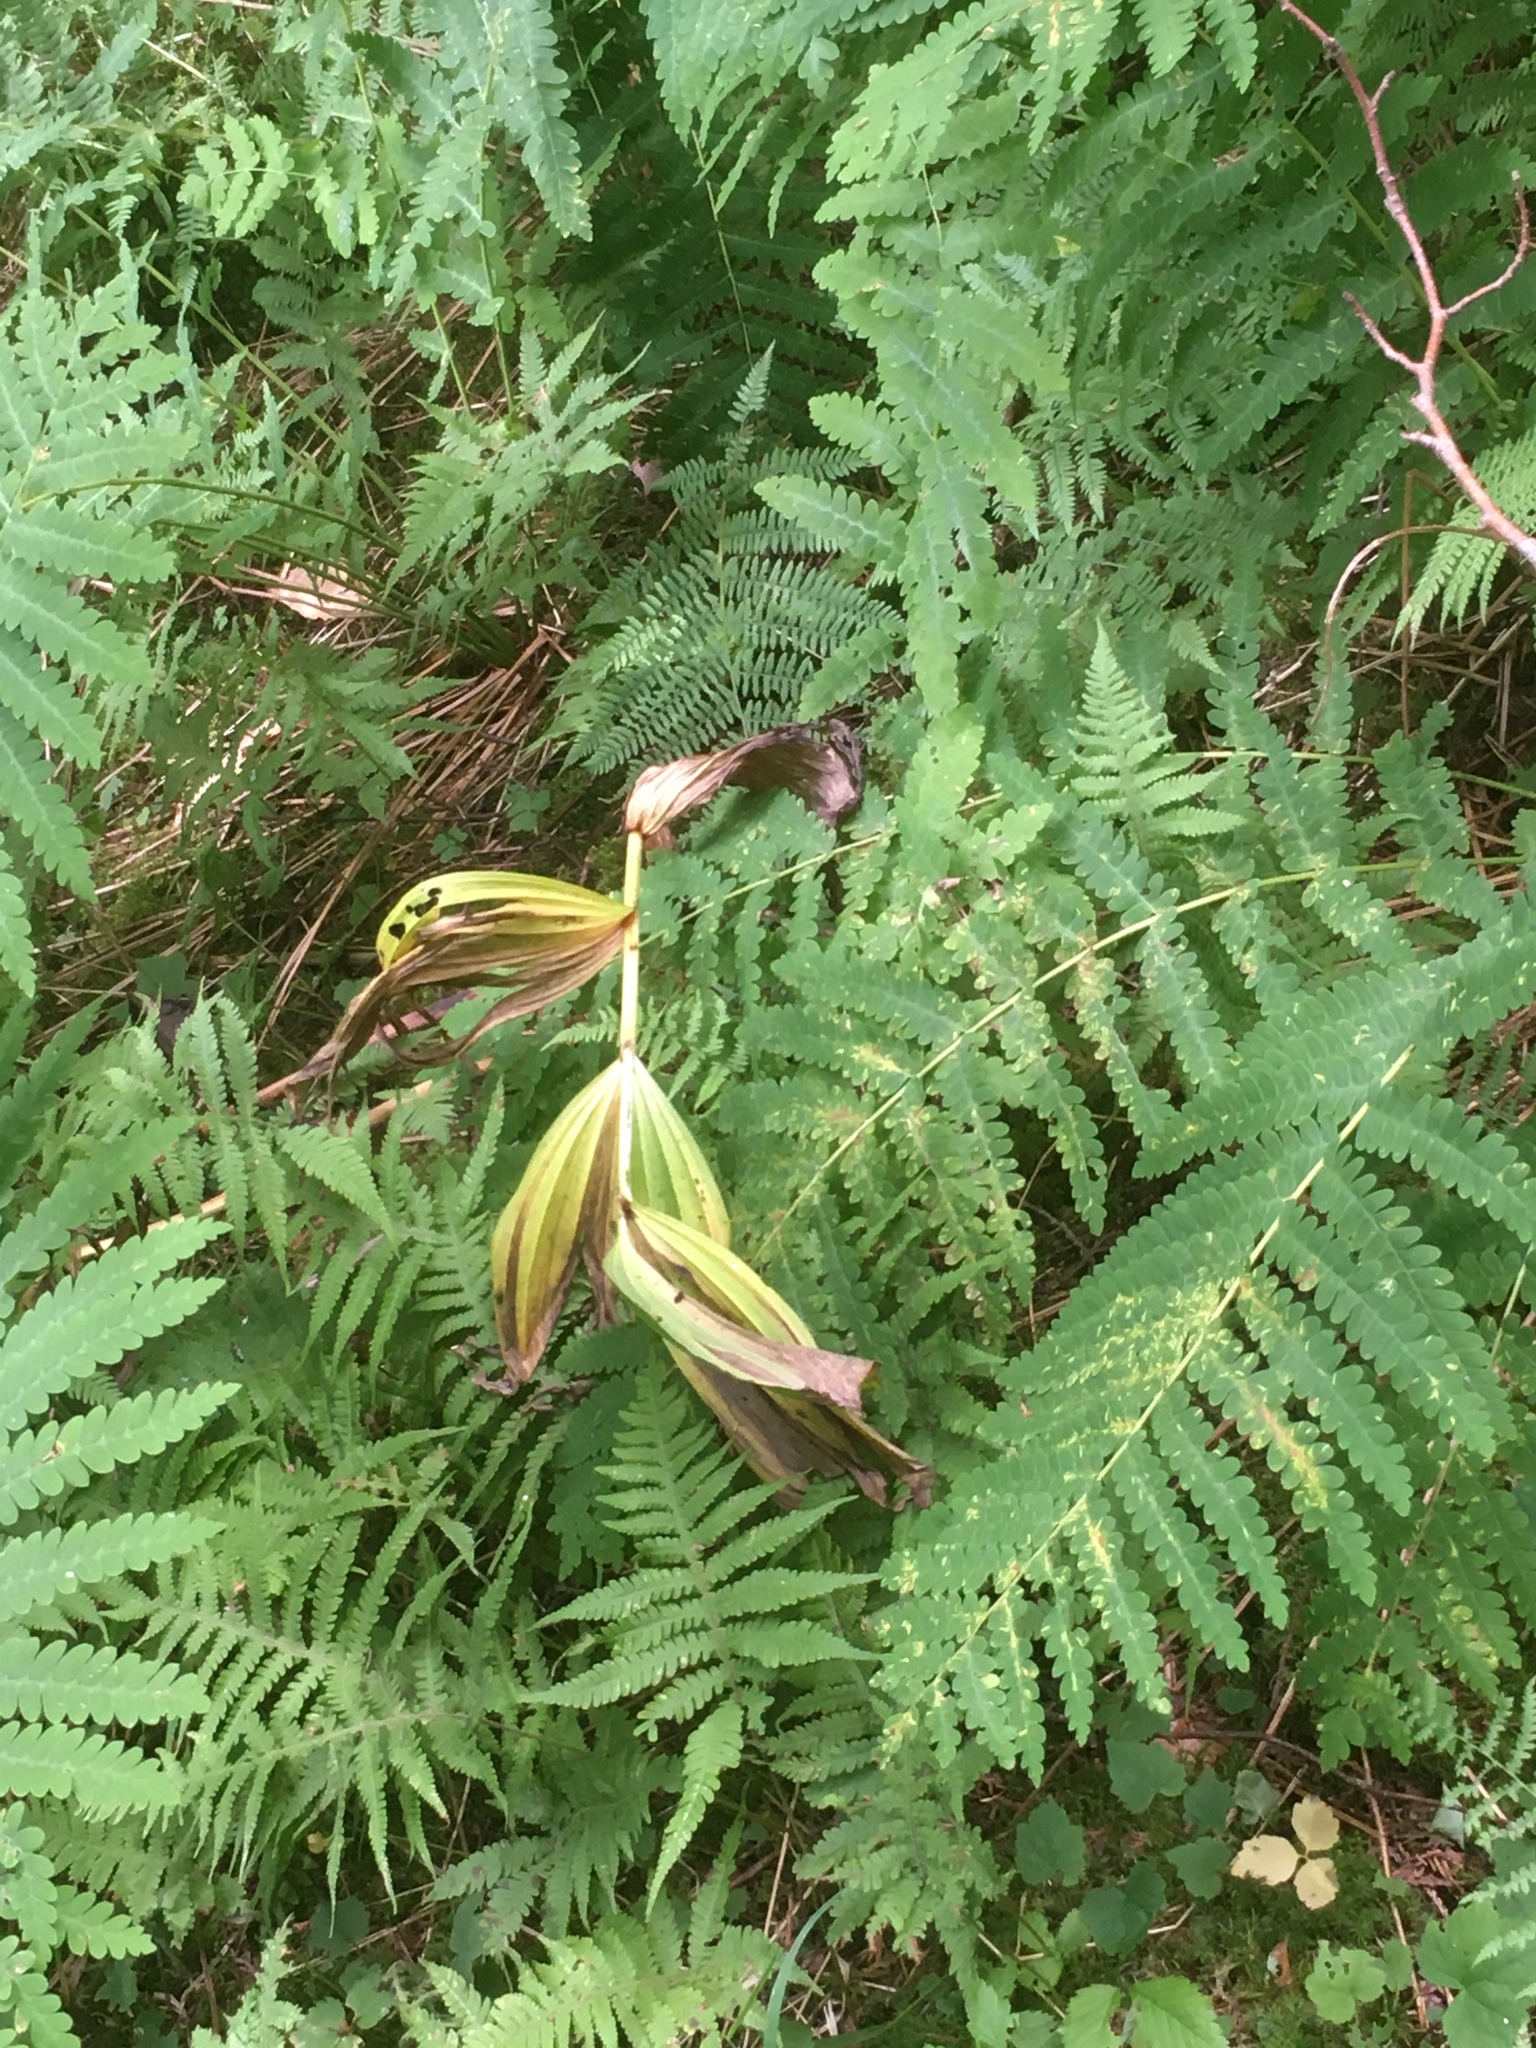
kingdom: Plantae
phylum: Tracheophyta
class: Liliopsida
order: Liliales
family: Melanthiaceae
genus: Veratrum
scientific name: Veratrum viride
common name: American false hellebore
